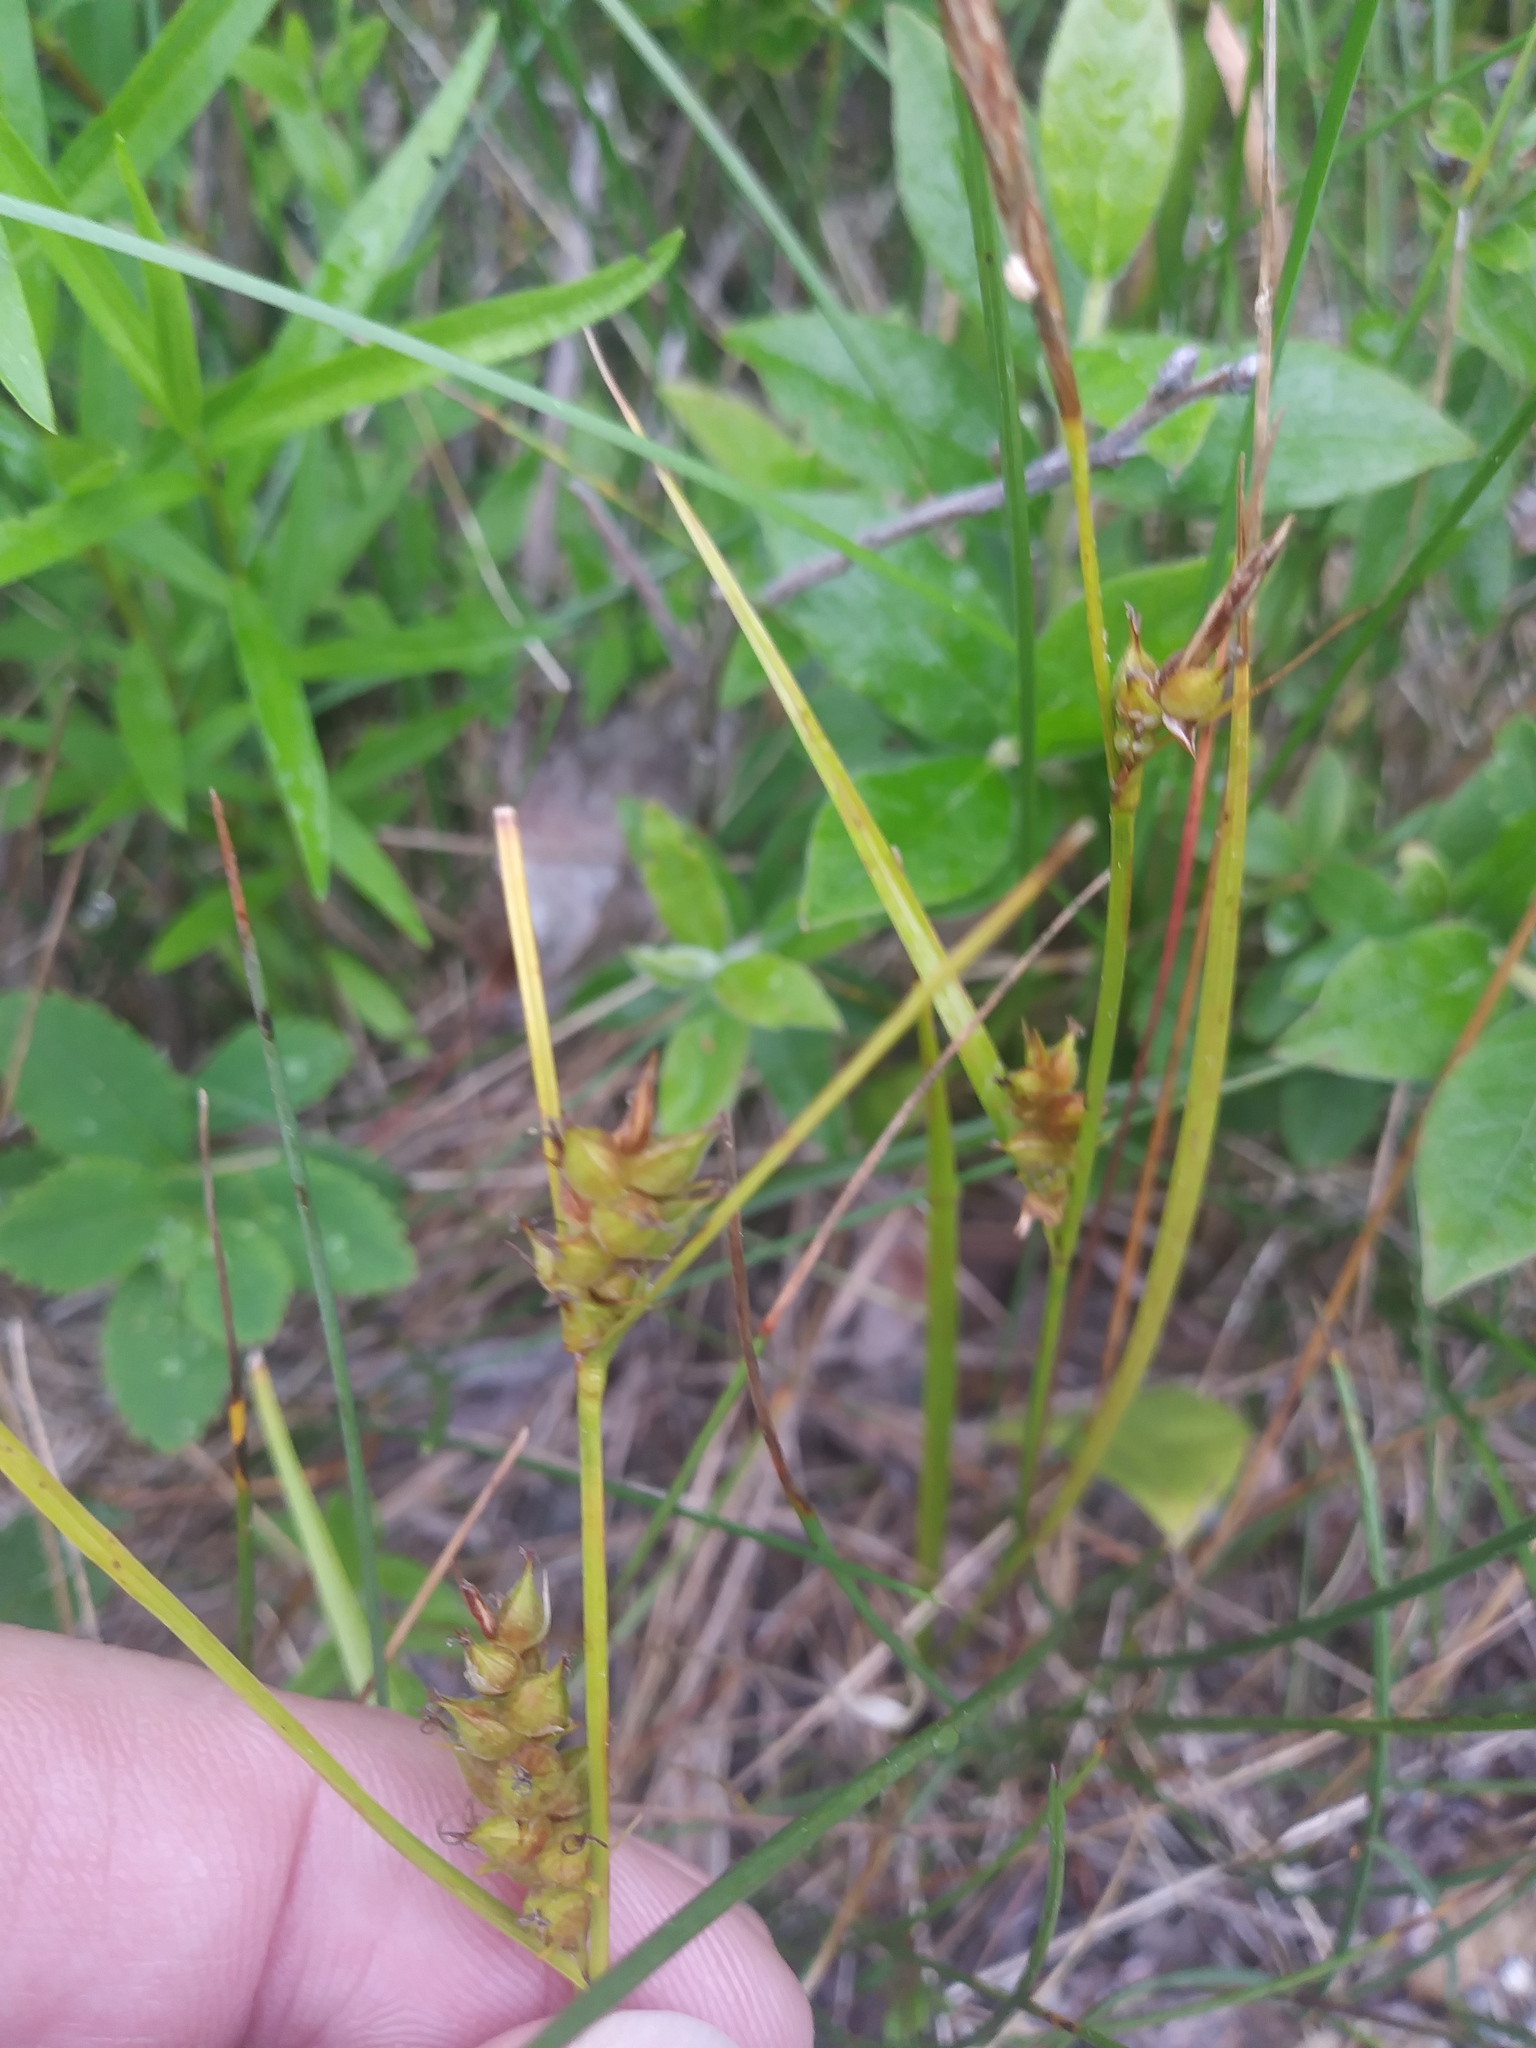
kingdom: Plantae
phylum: Tracheophyta
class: Liliopsida
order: Poales
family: Cyperaceae
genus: Carex
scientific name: Carex houghtoniana
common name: Houghton's sedge
